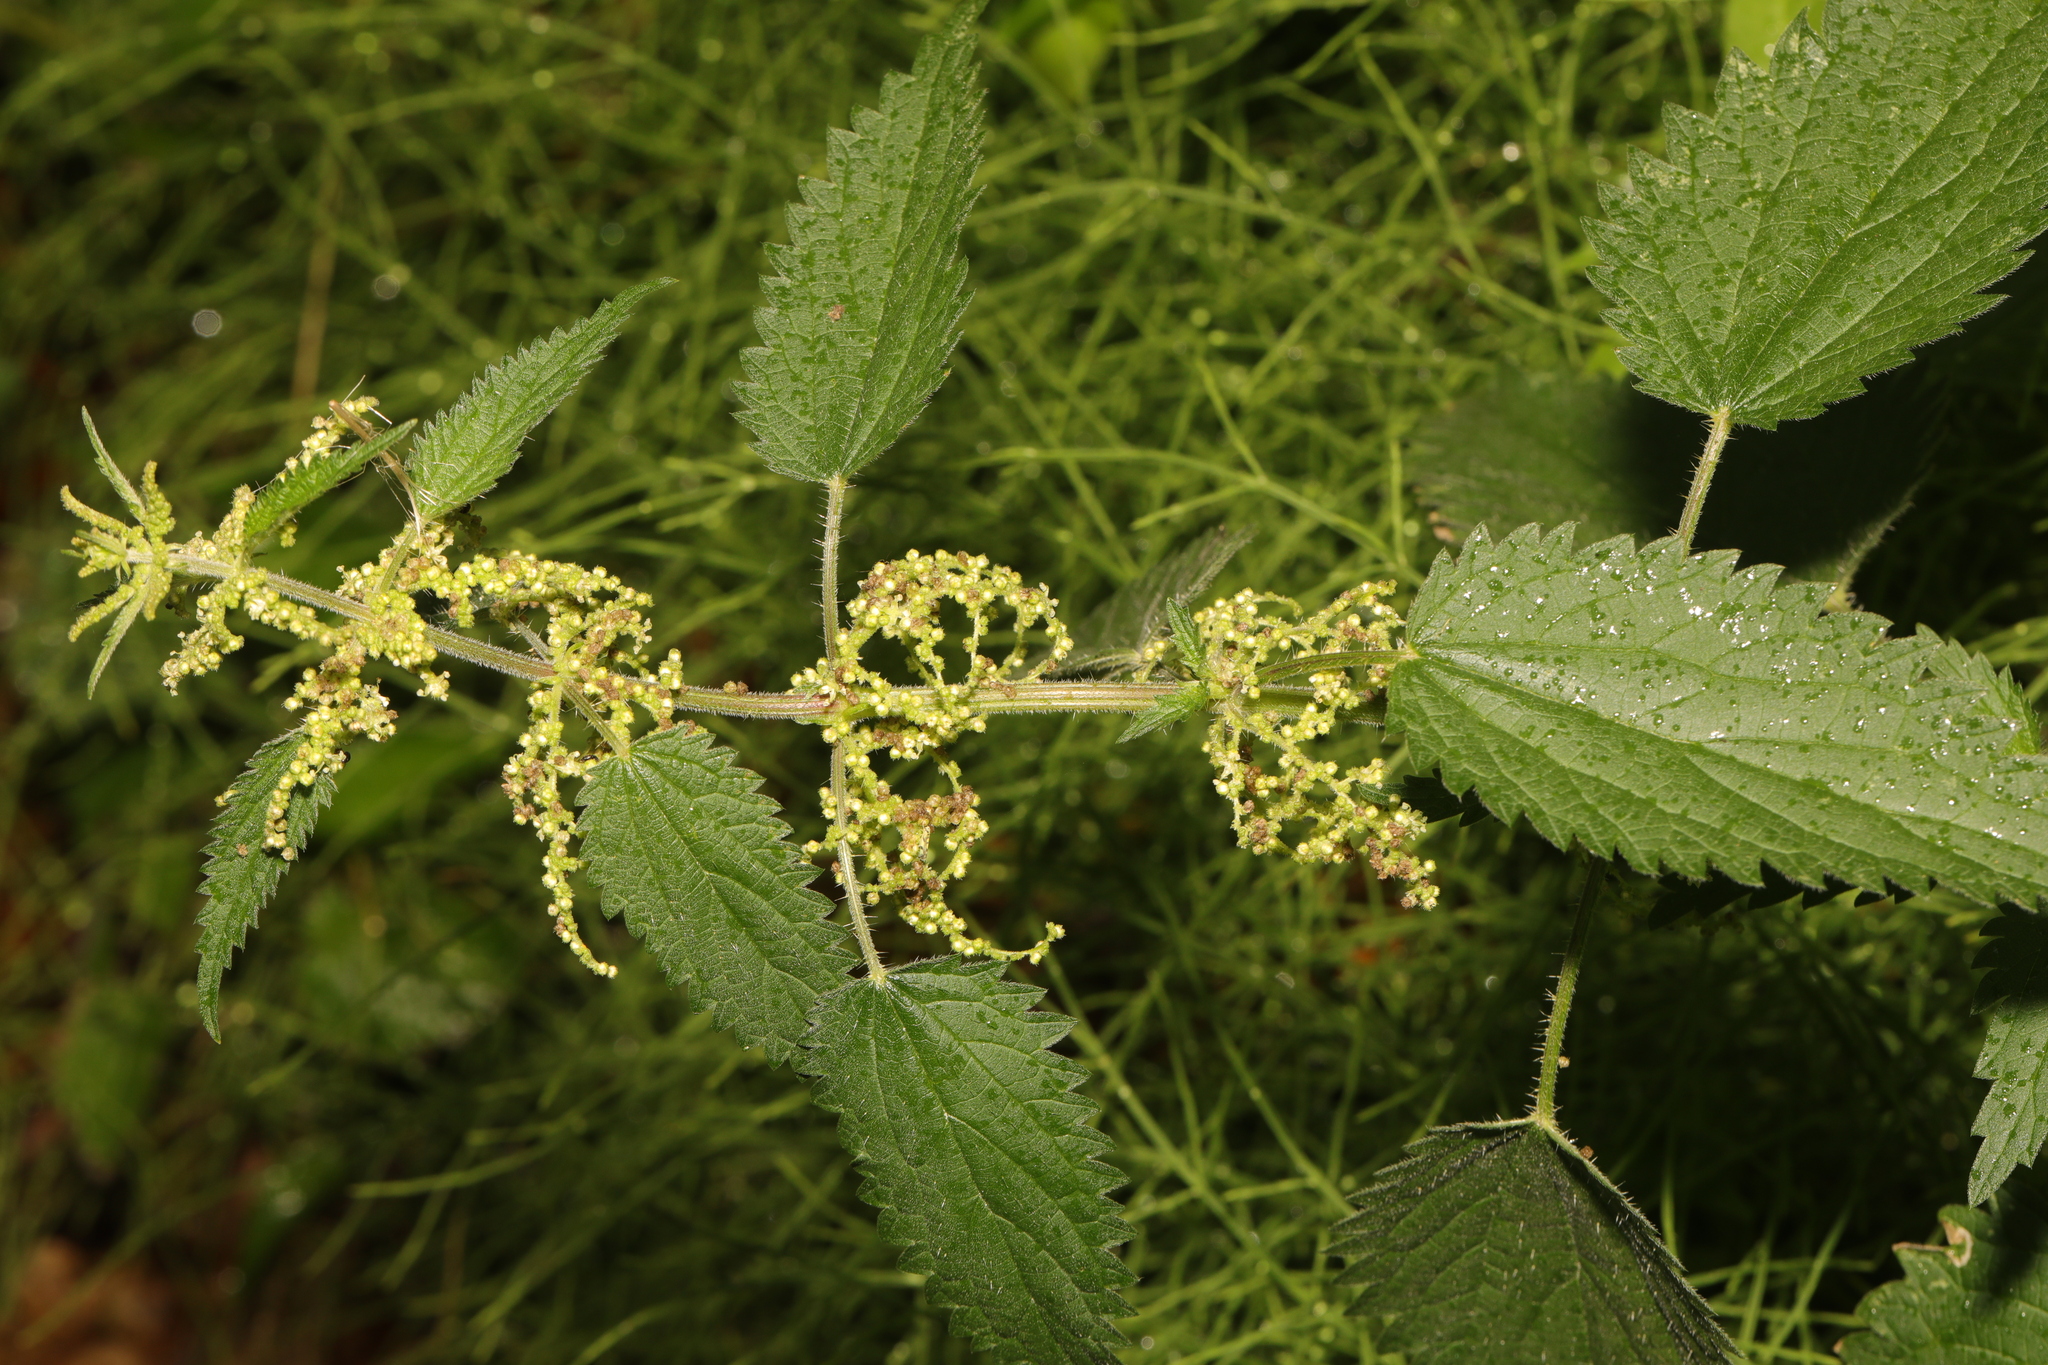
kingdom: Plantae
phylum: Tracheophyta
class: Magnoliopsida
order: Rosales
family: Urticaceae
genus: Urtica
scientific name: Urtica dioica
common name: Common nettle
